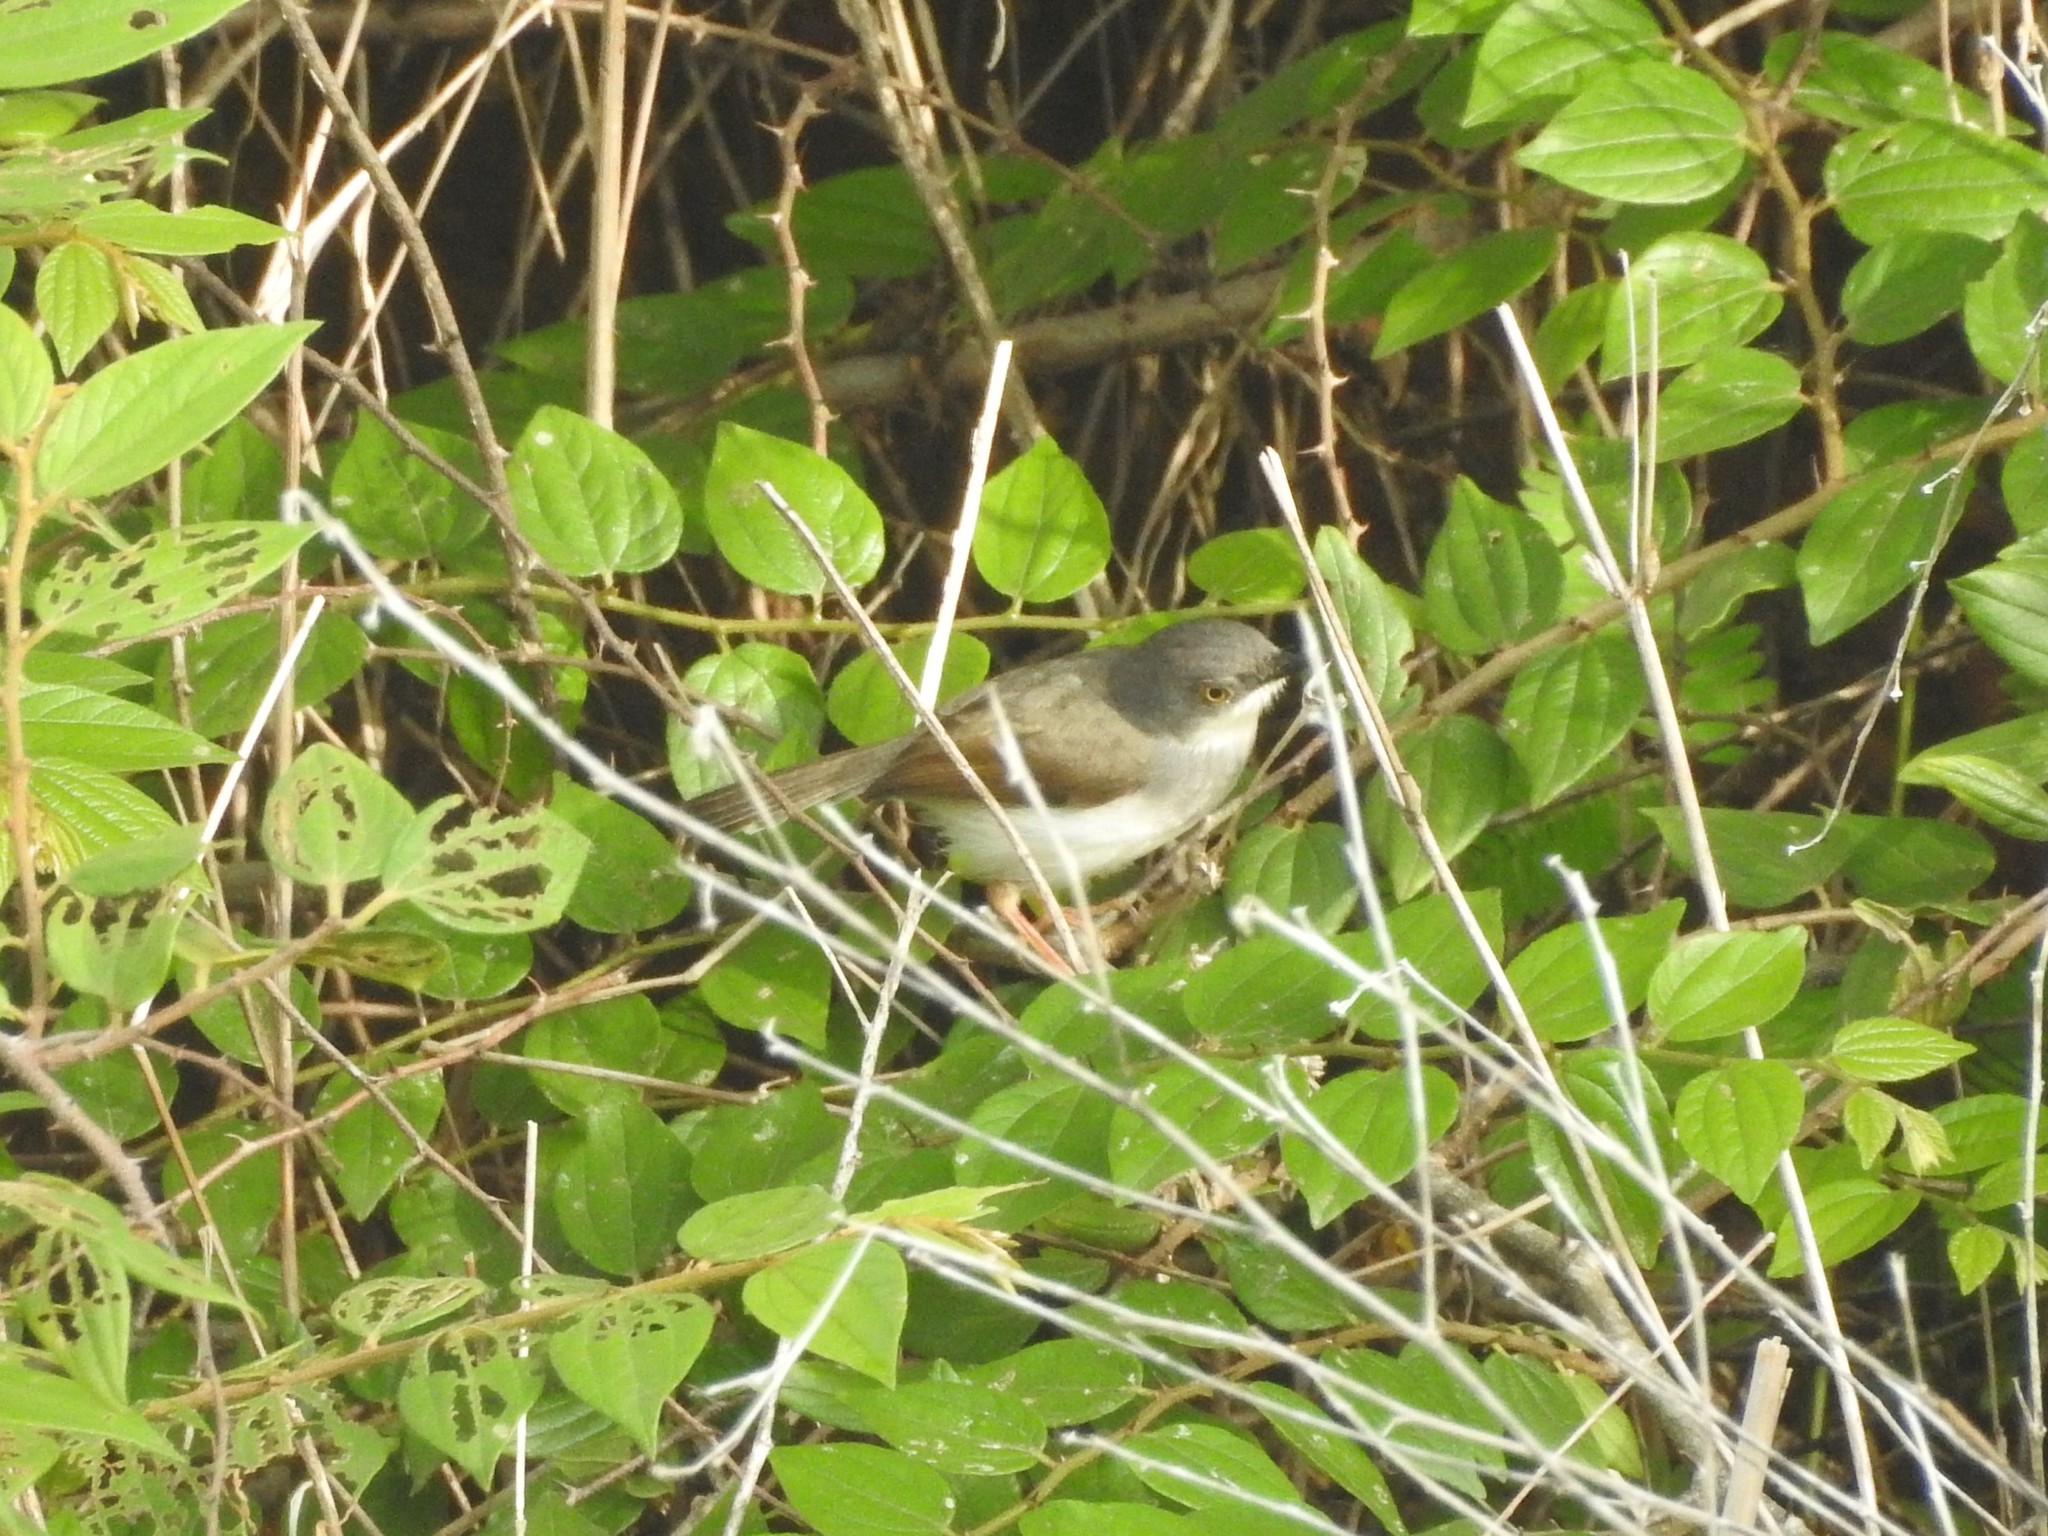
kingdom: Animalia
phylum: Chordata
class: Aves
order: Passeriformes
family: Cisticolidae
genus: Prinia
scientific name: Prinia hodgsonii
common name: Grey-breasted prinia
